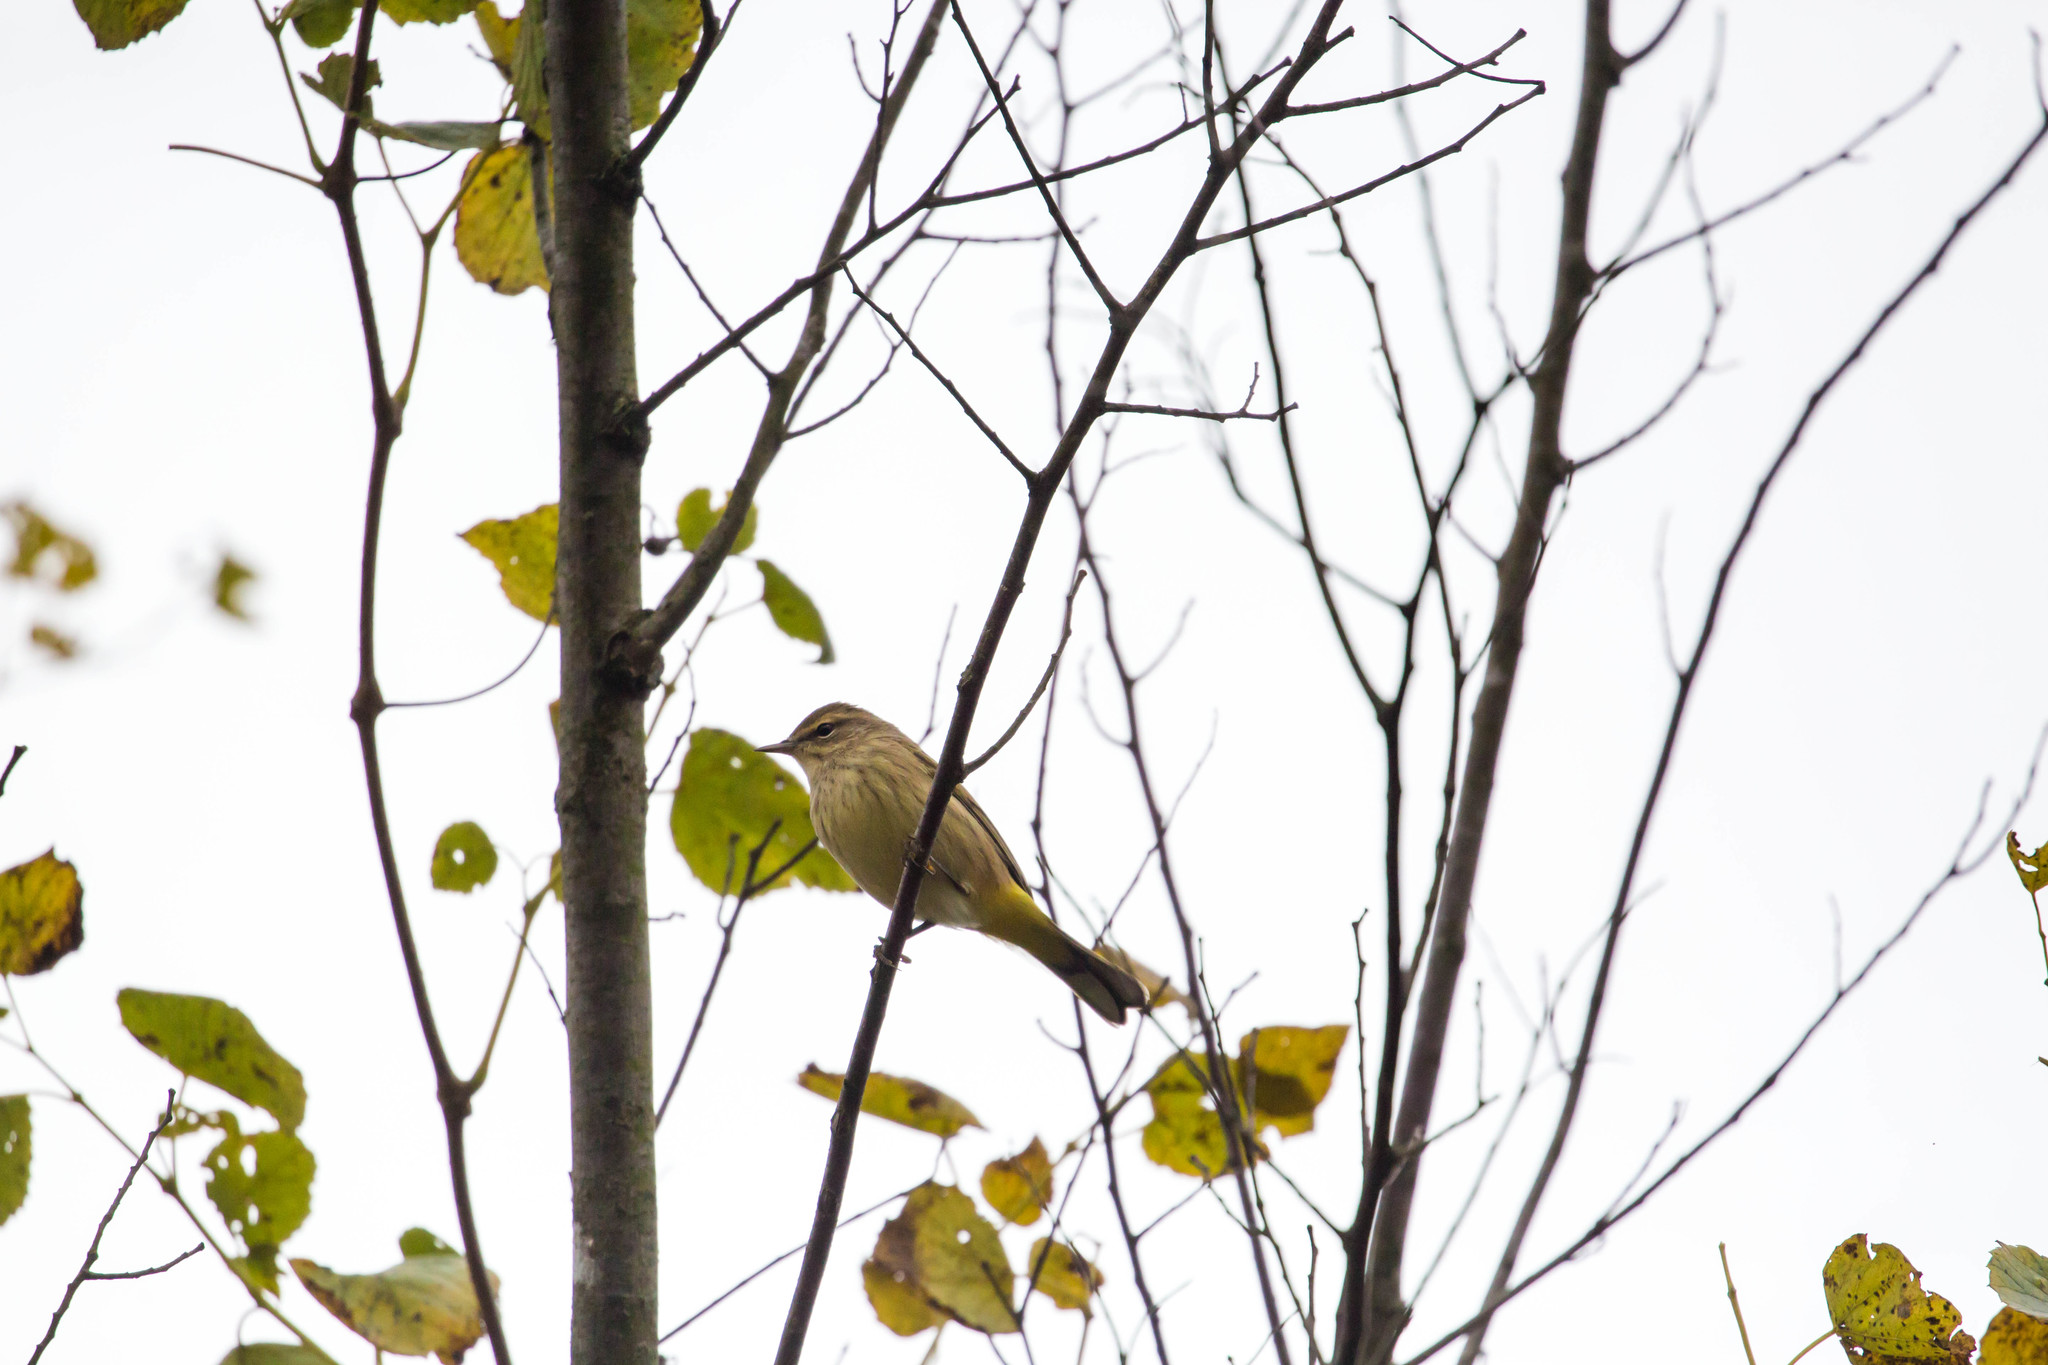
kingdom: Animalia
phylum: Chordata
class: Aves
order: Passeriformes
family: Parulidae
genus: Setophaga
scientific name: Setophaga palmarum
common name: Palm warbler
